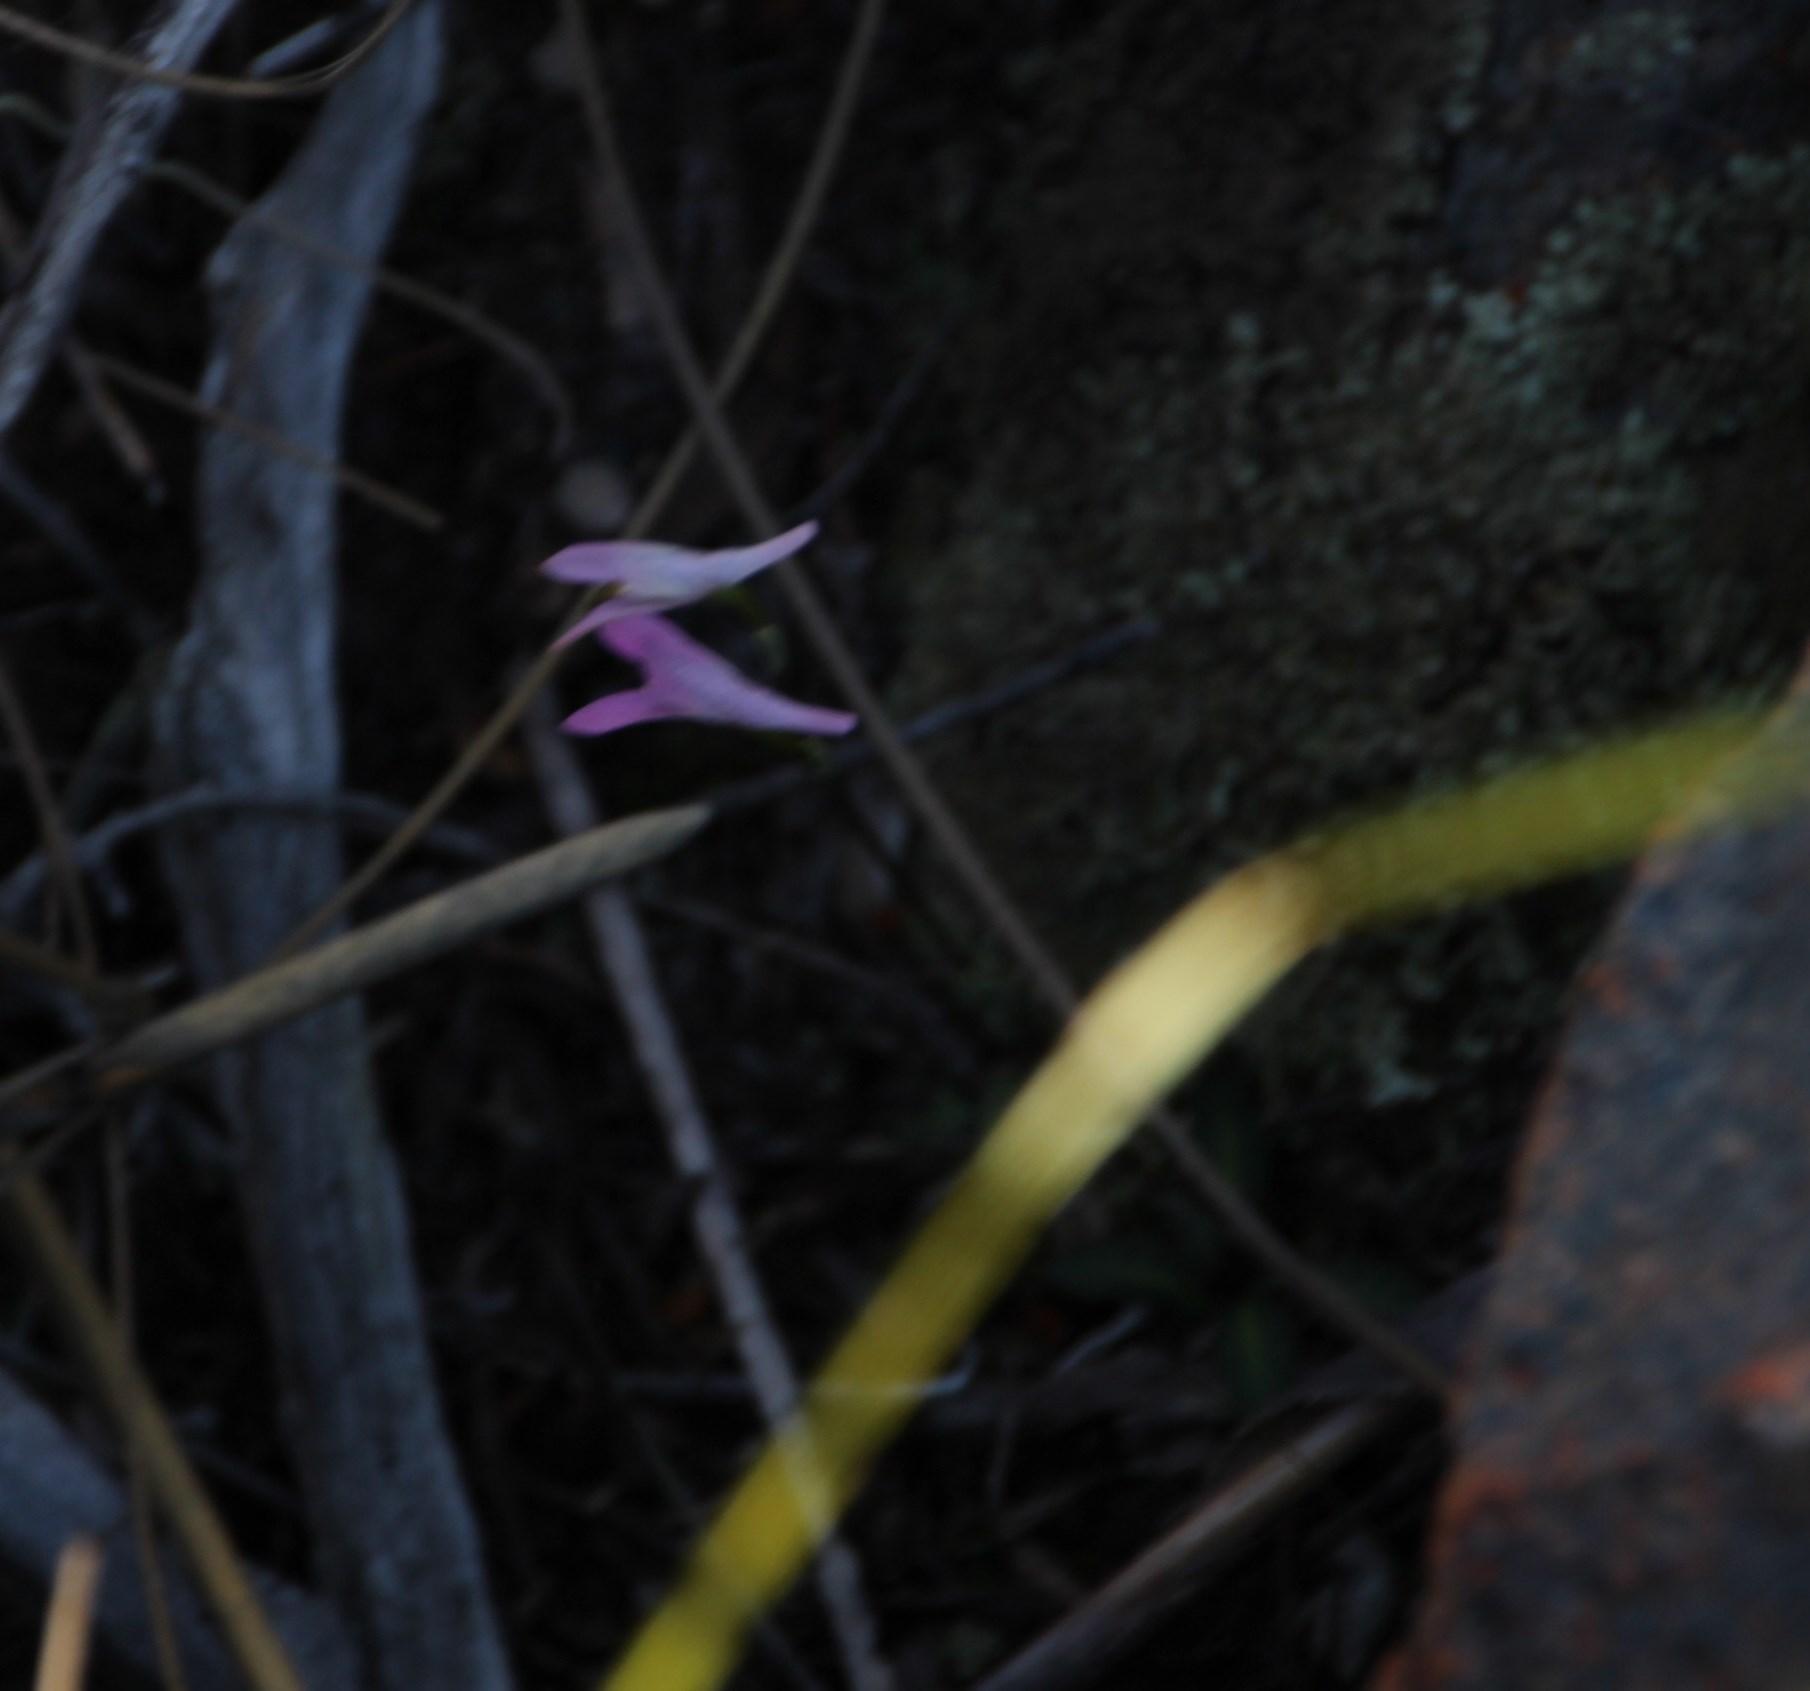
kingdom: Plantae
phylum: Tracheophyta
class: Liliopsida
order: Asparagales
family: Orchidaceae
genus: Disa
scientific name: Disa bifida
